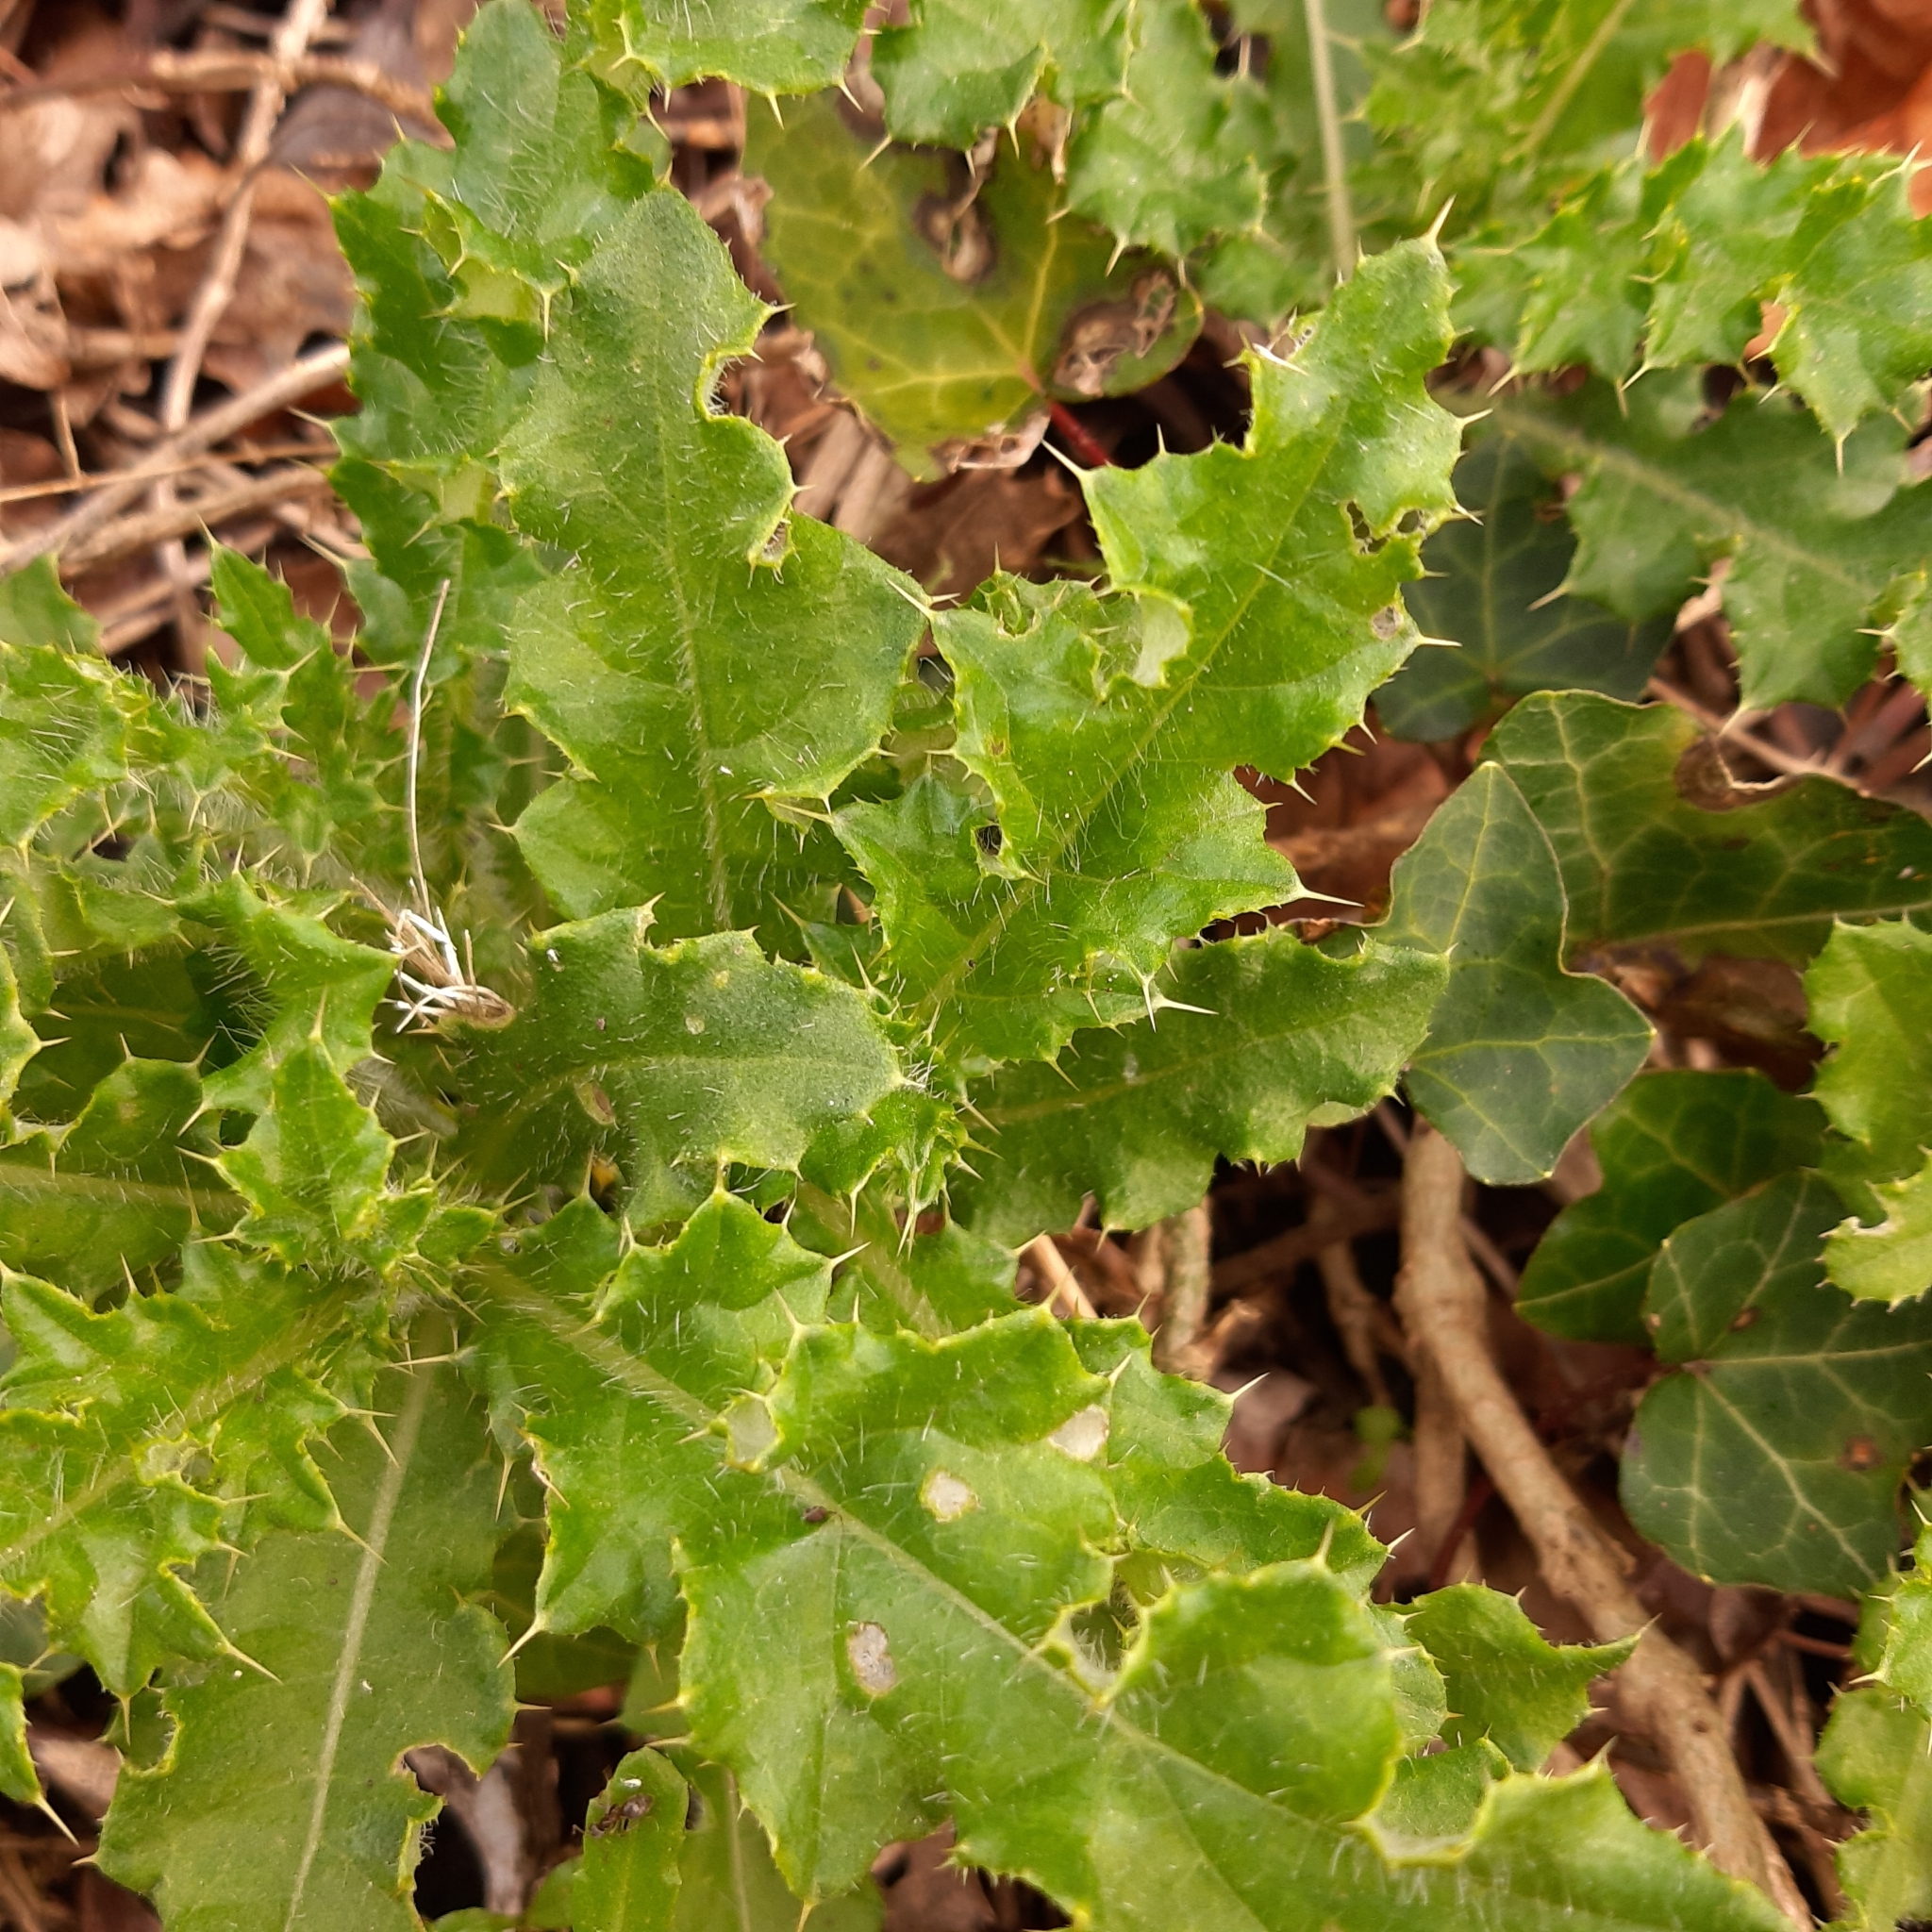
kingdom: Plantae
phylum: Tracheophyta
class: Magnoliopsida
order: Asterales
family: Asteraceae
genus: Cirsium
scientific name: Cirsium arvense
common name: Creeping thistle
